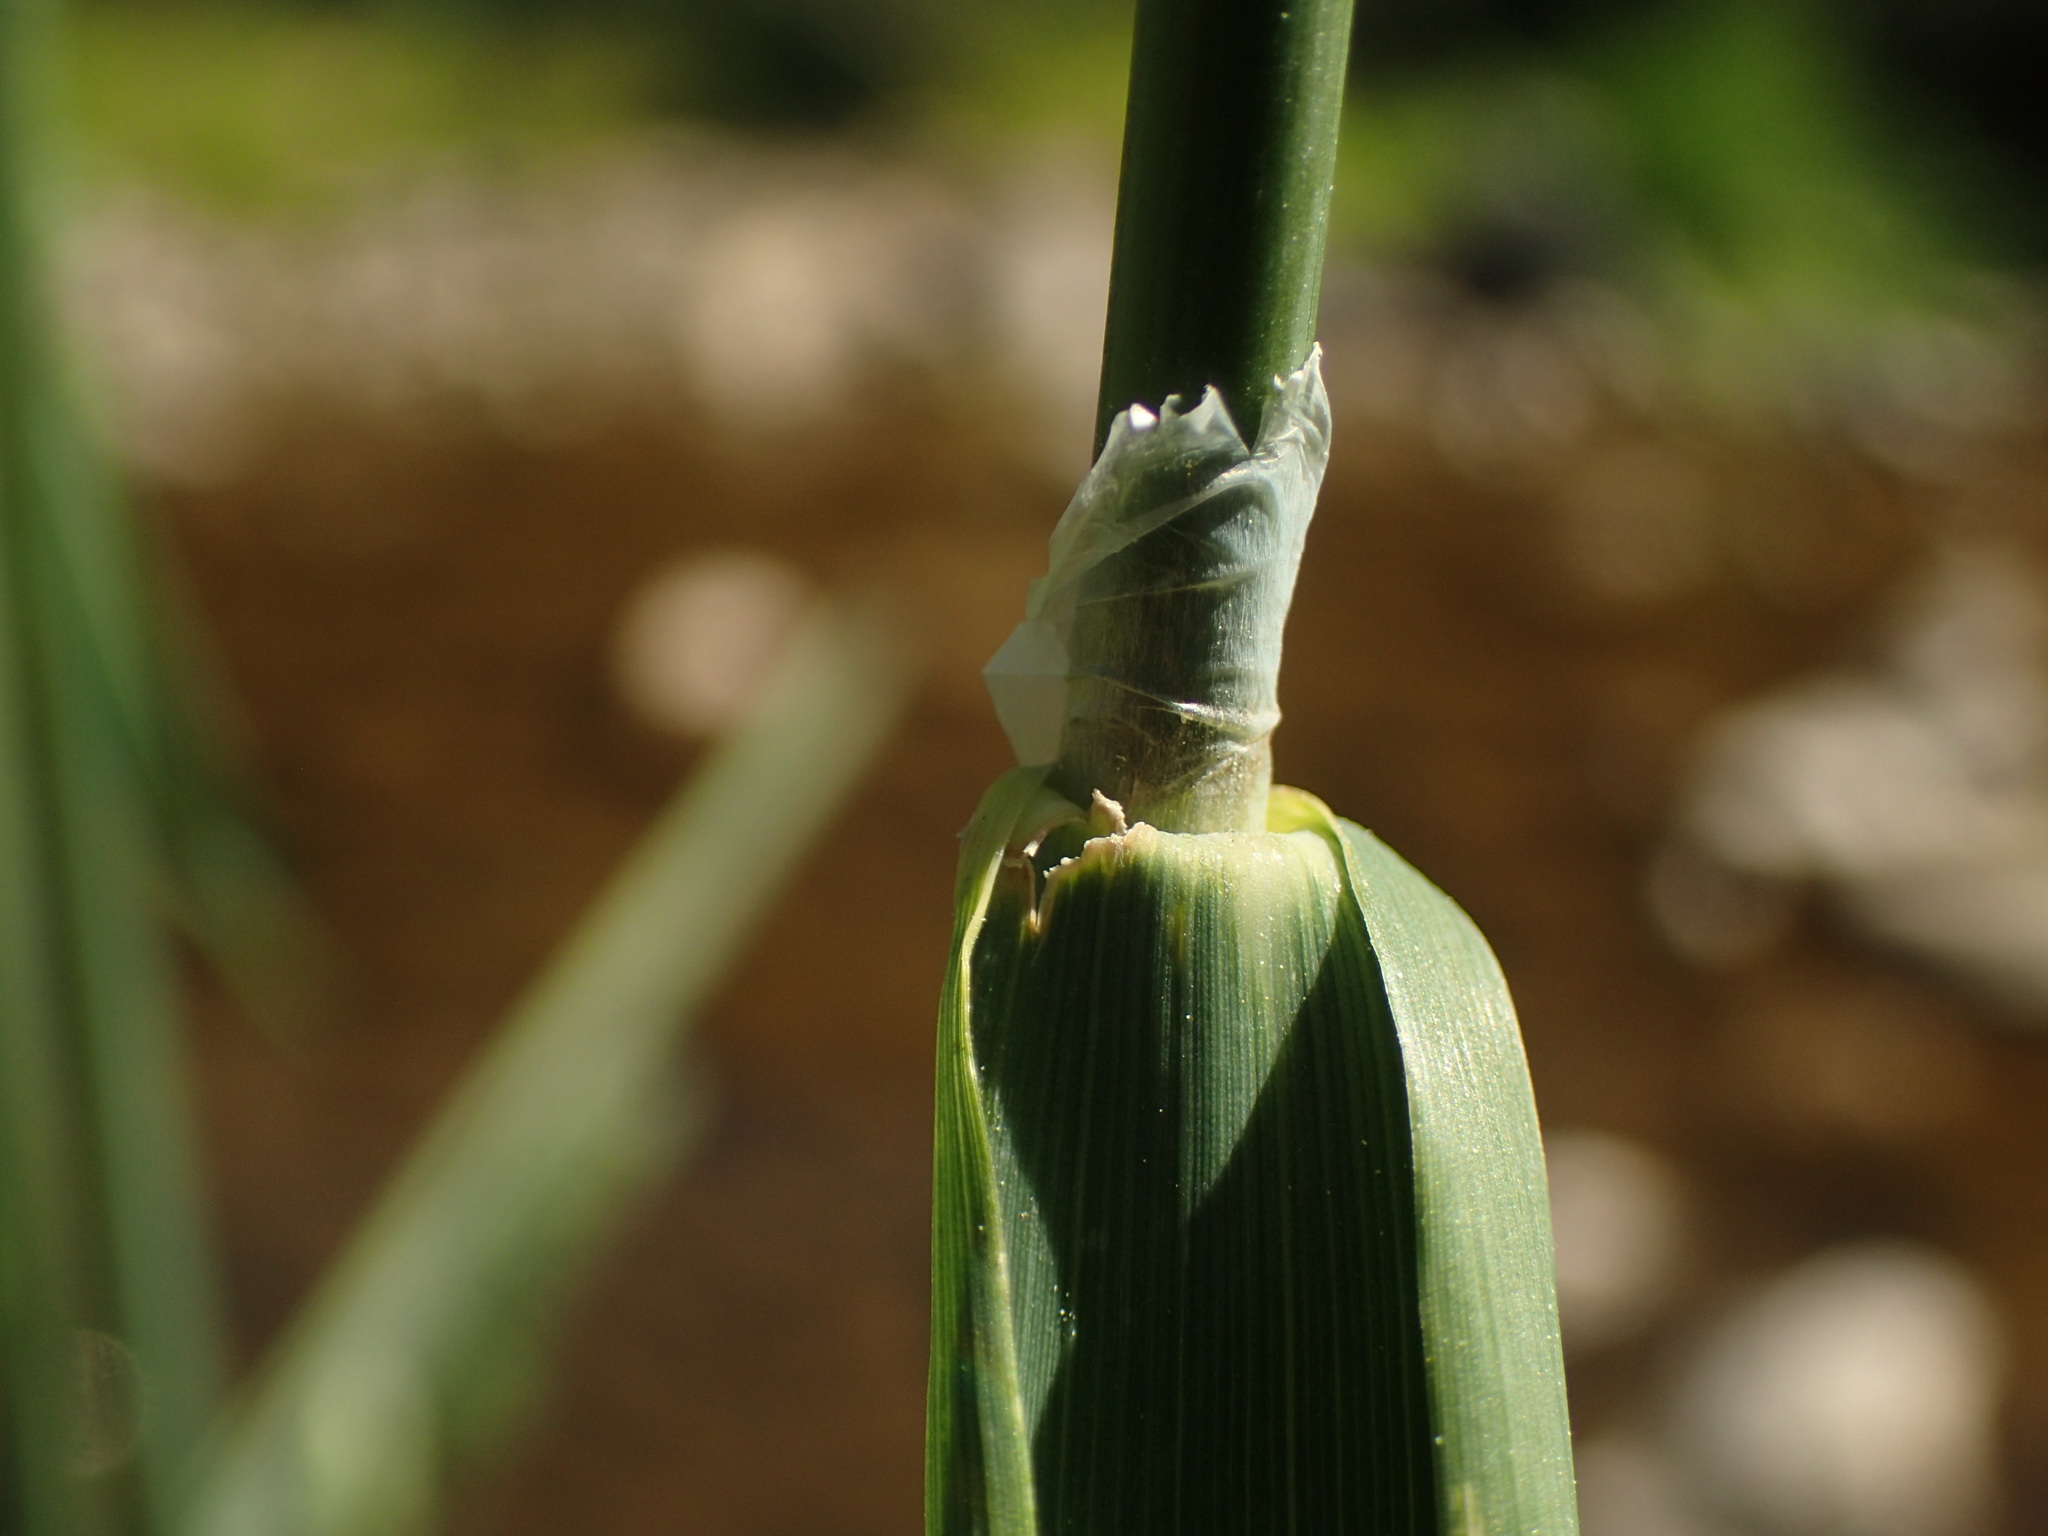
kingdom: Plantae
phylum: Tracheophyta
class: Liliopsida
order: Poales
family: Poaceae
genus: Phalaris
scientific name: Phalaris arundinacea
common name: Reed canary-grass
